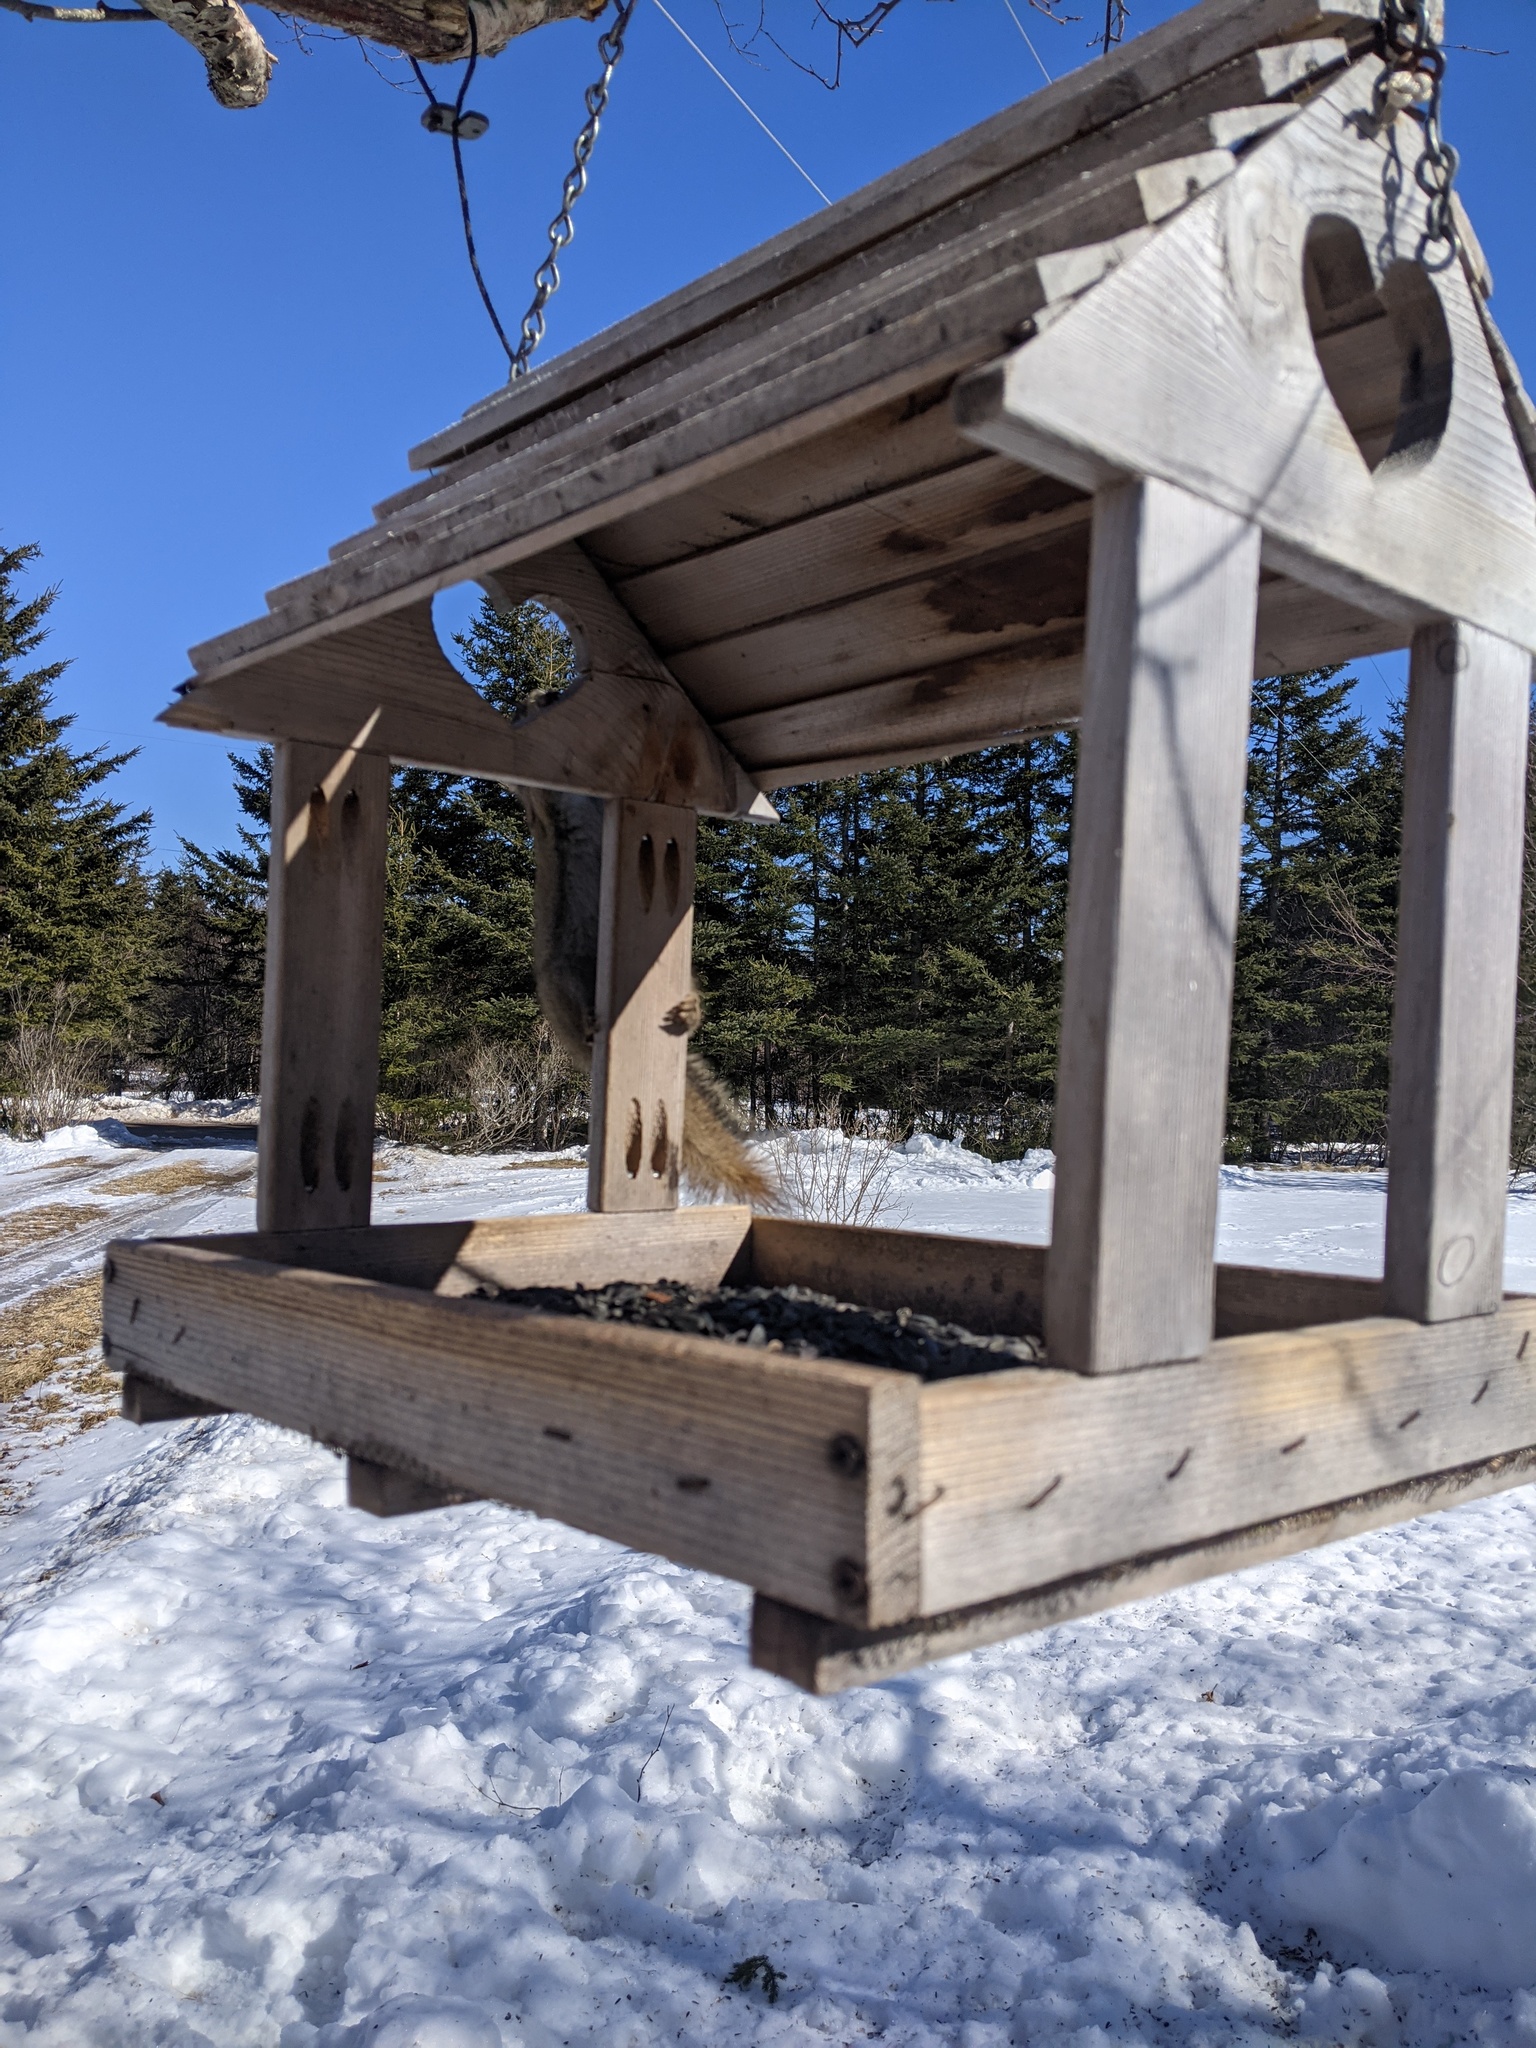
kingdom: Animalia
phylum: Chordata
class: Mammalia
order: Rodentia
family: Sciuridae
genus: Tamiasciurus
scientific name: Tamiasciurus hudsonicus
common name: Red squirrel
